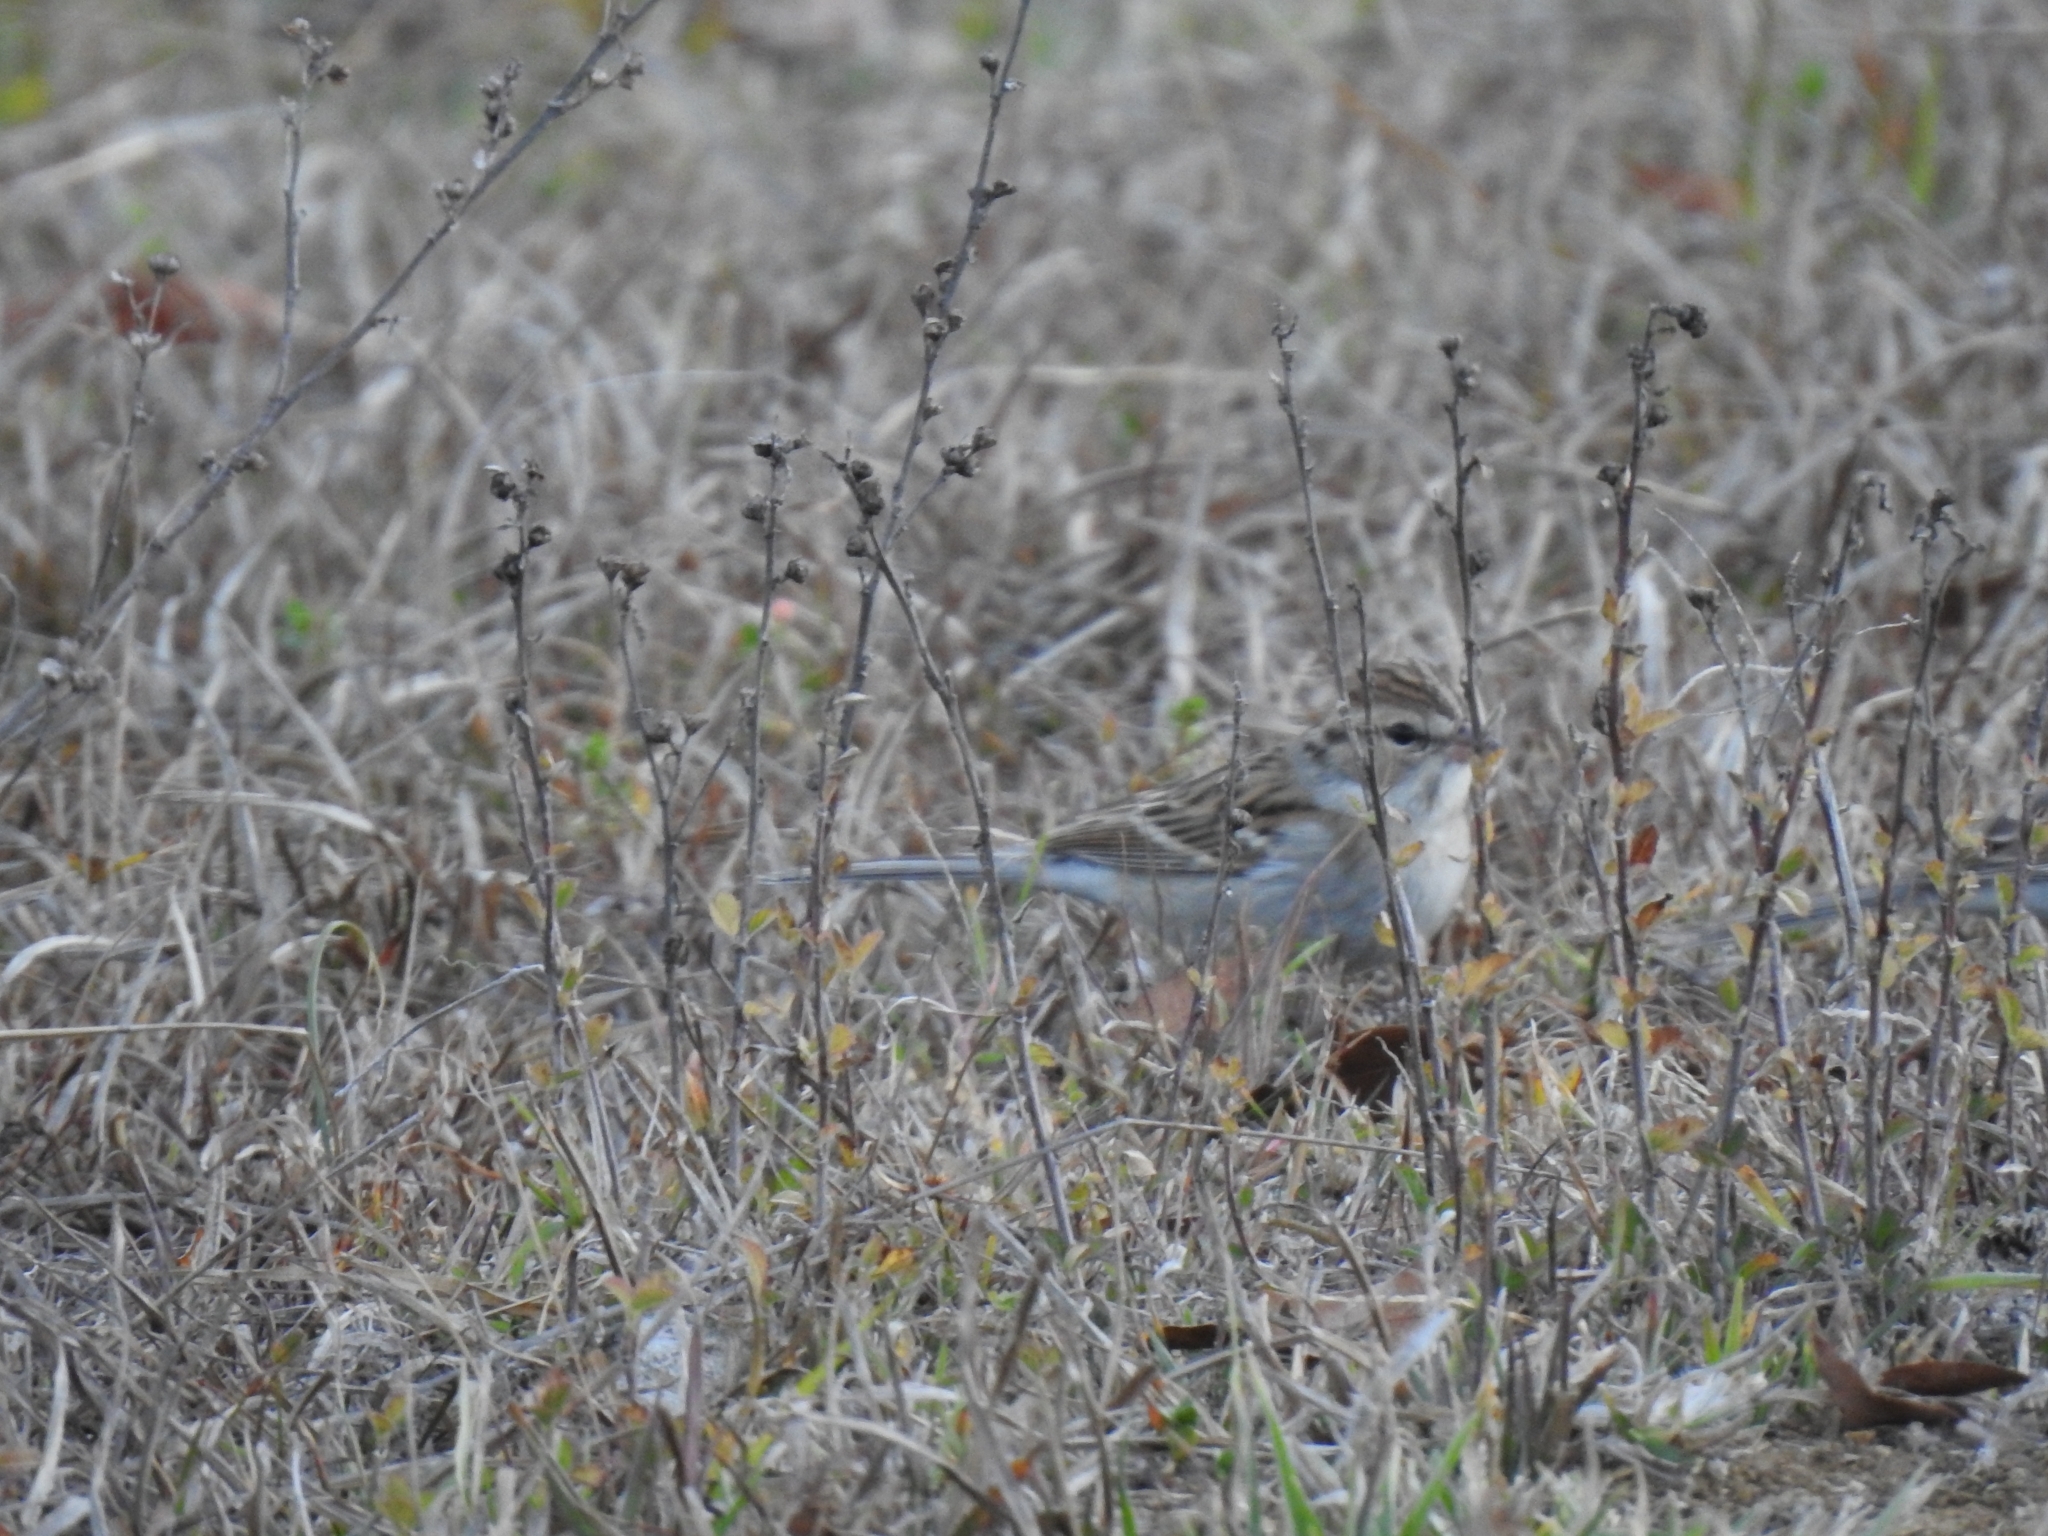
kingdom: Animalia
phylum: Chordata
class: Aves
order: Passeriformes
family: Passerellidae
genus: Spizella
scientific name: Spizella pallida
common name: Clay-colored sparrow
